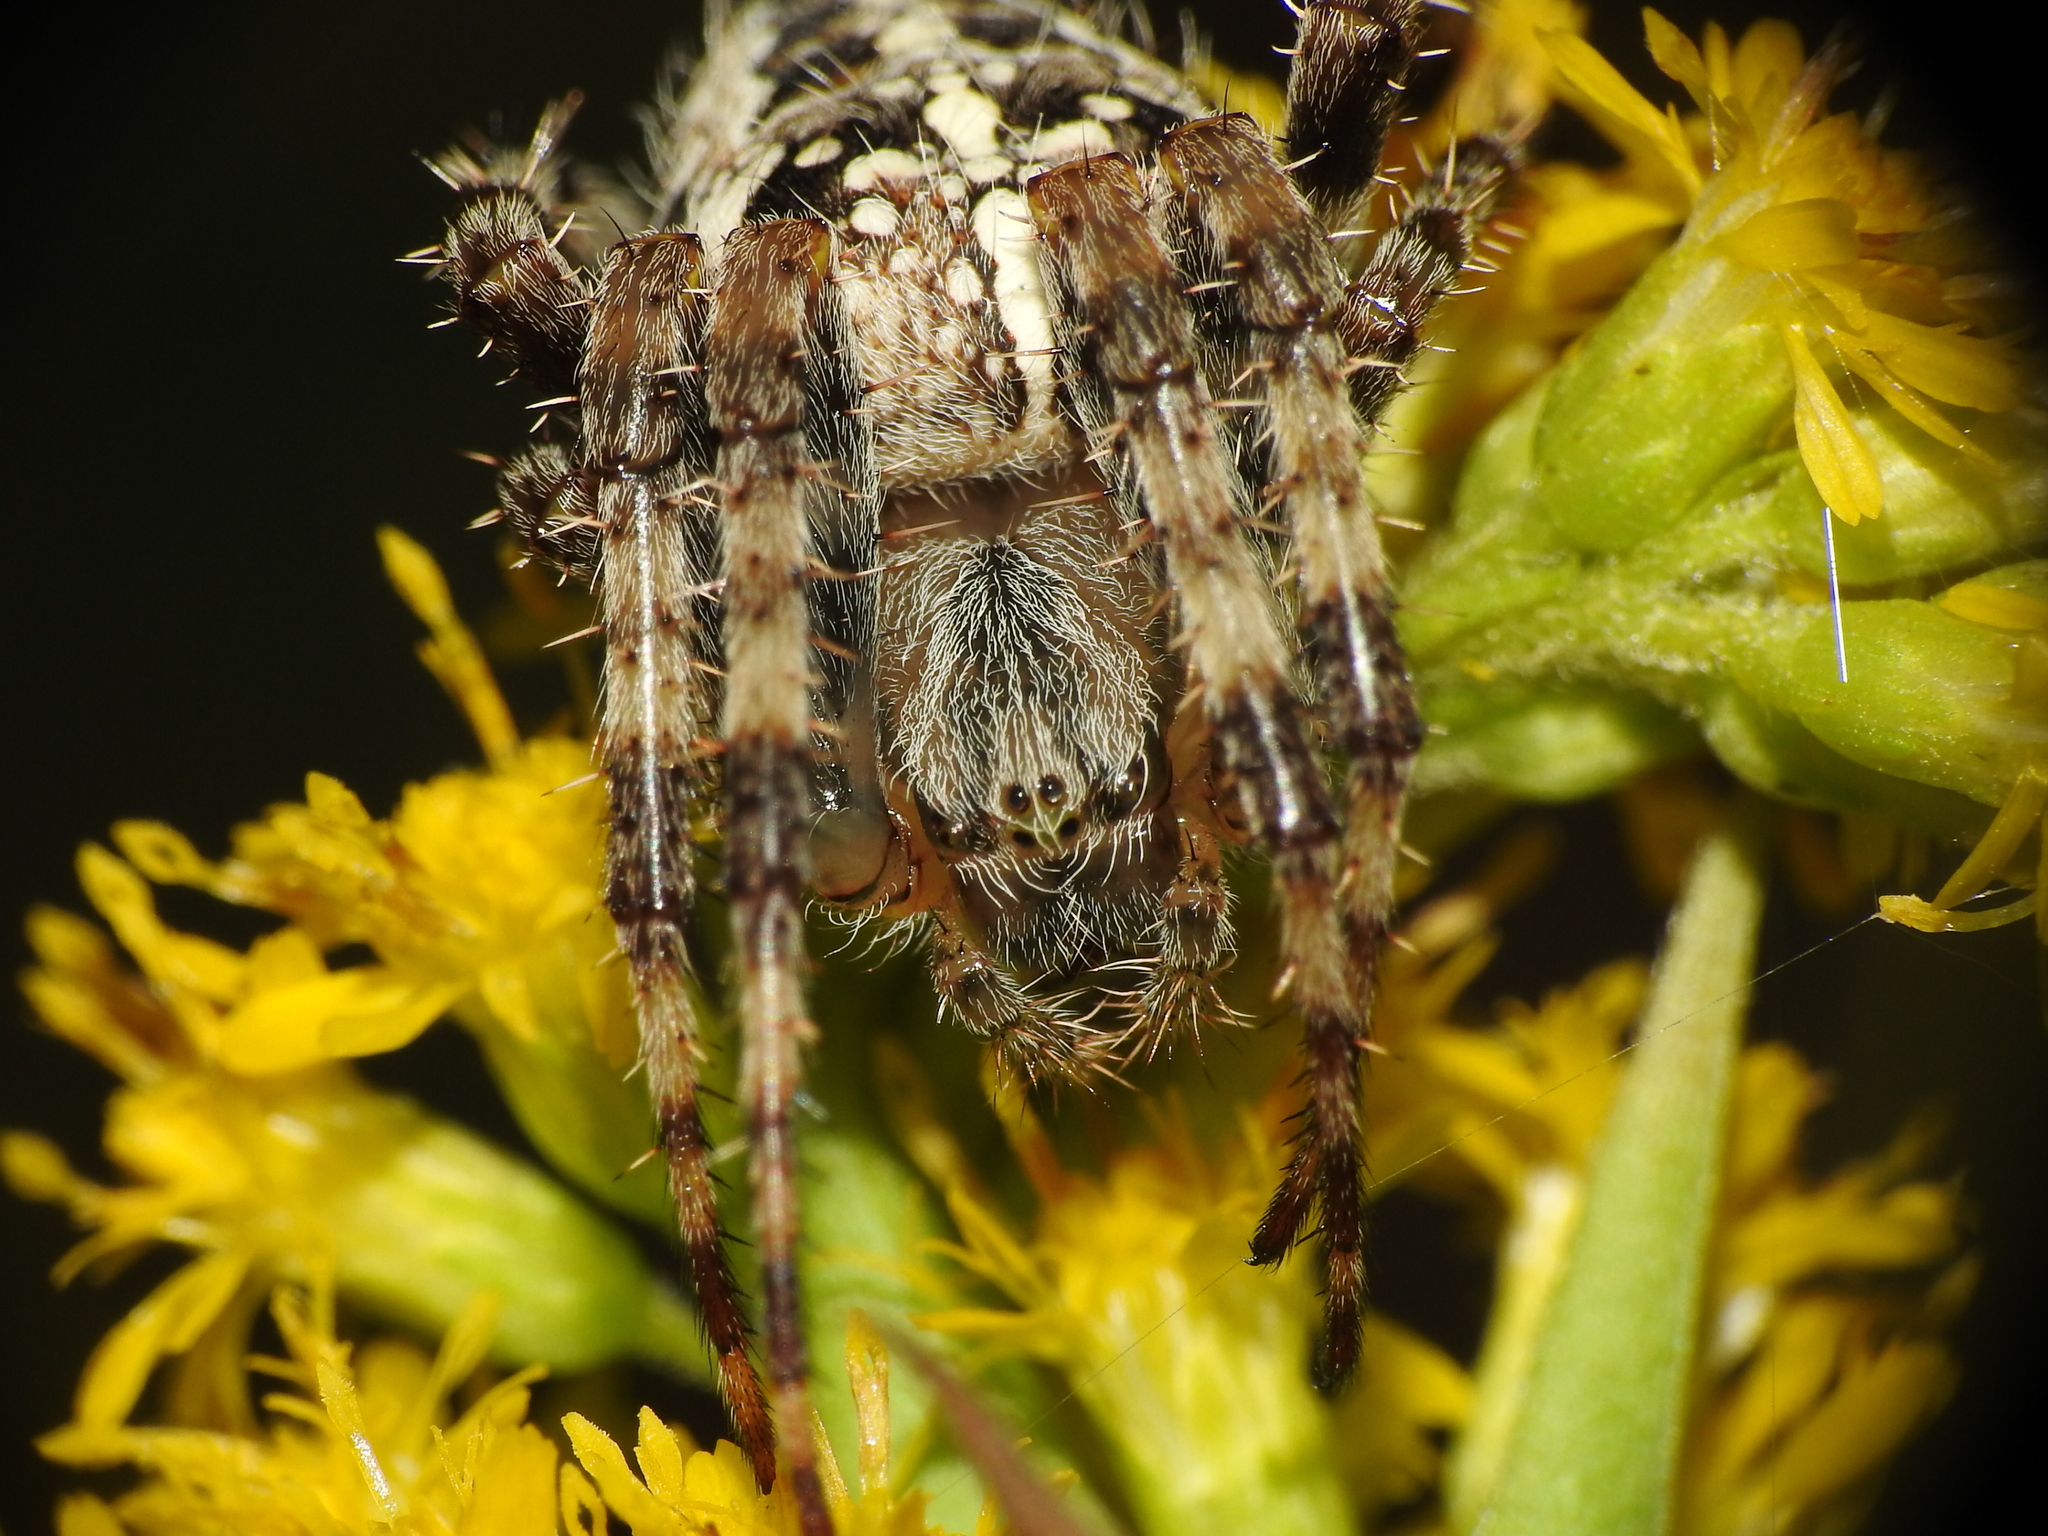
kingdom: Animalia
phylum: Arthropoda
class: Arachnida
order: Araneae
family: Araneidae
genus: Araneus
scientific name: Araneus diadematus
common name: Cross orbweaver
